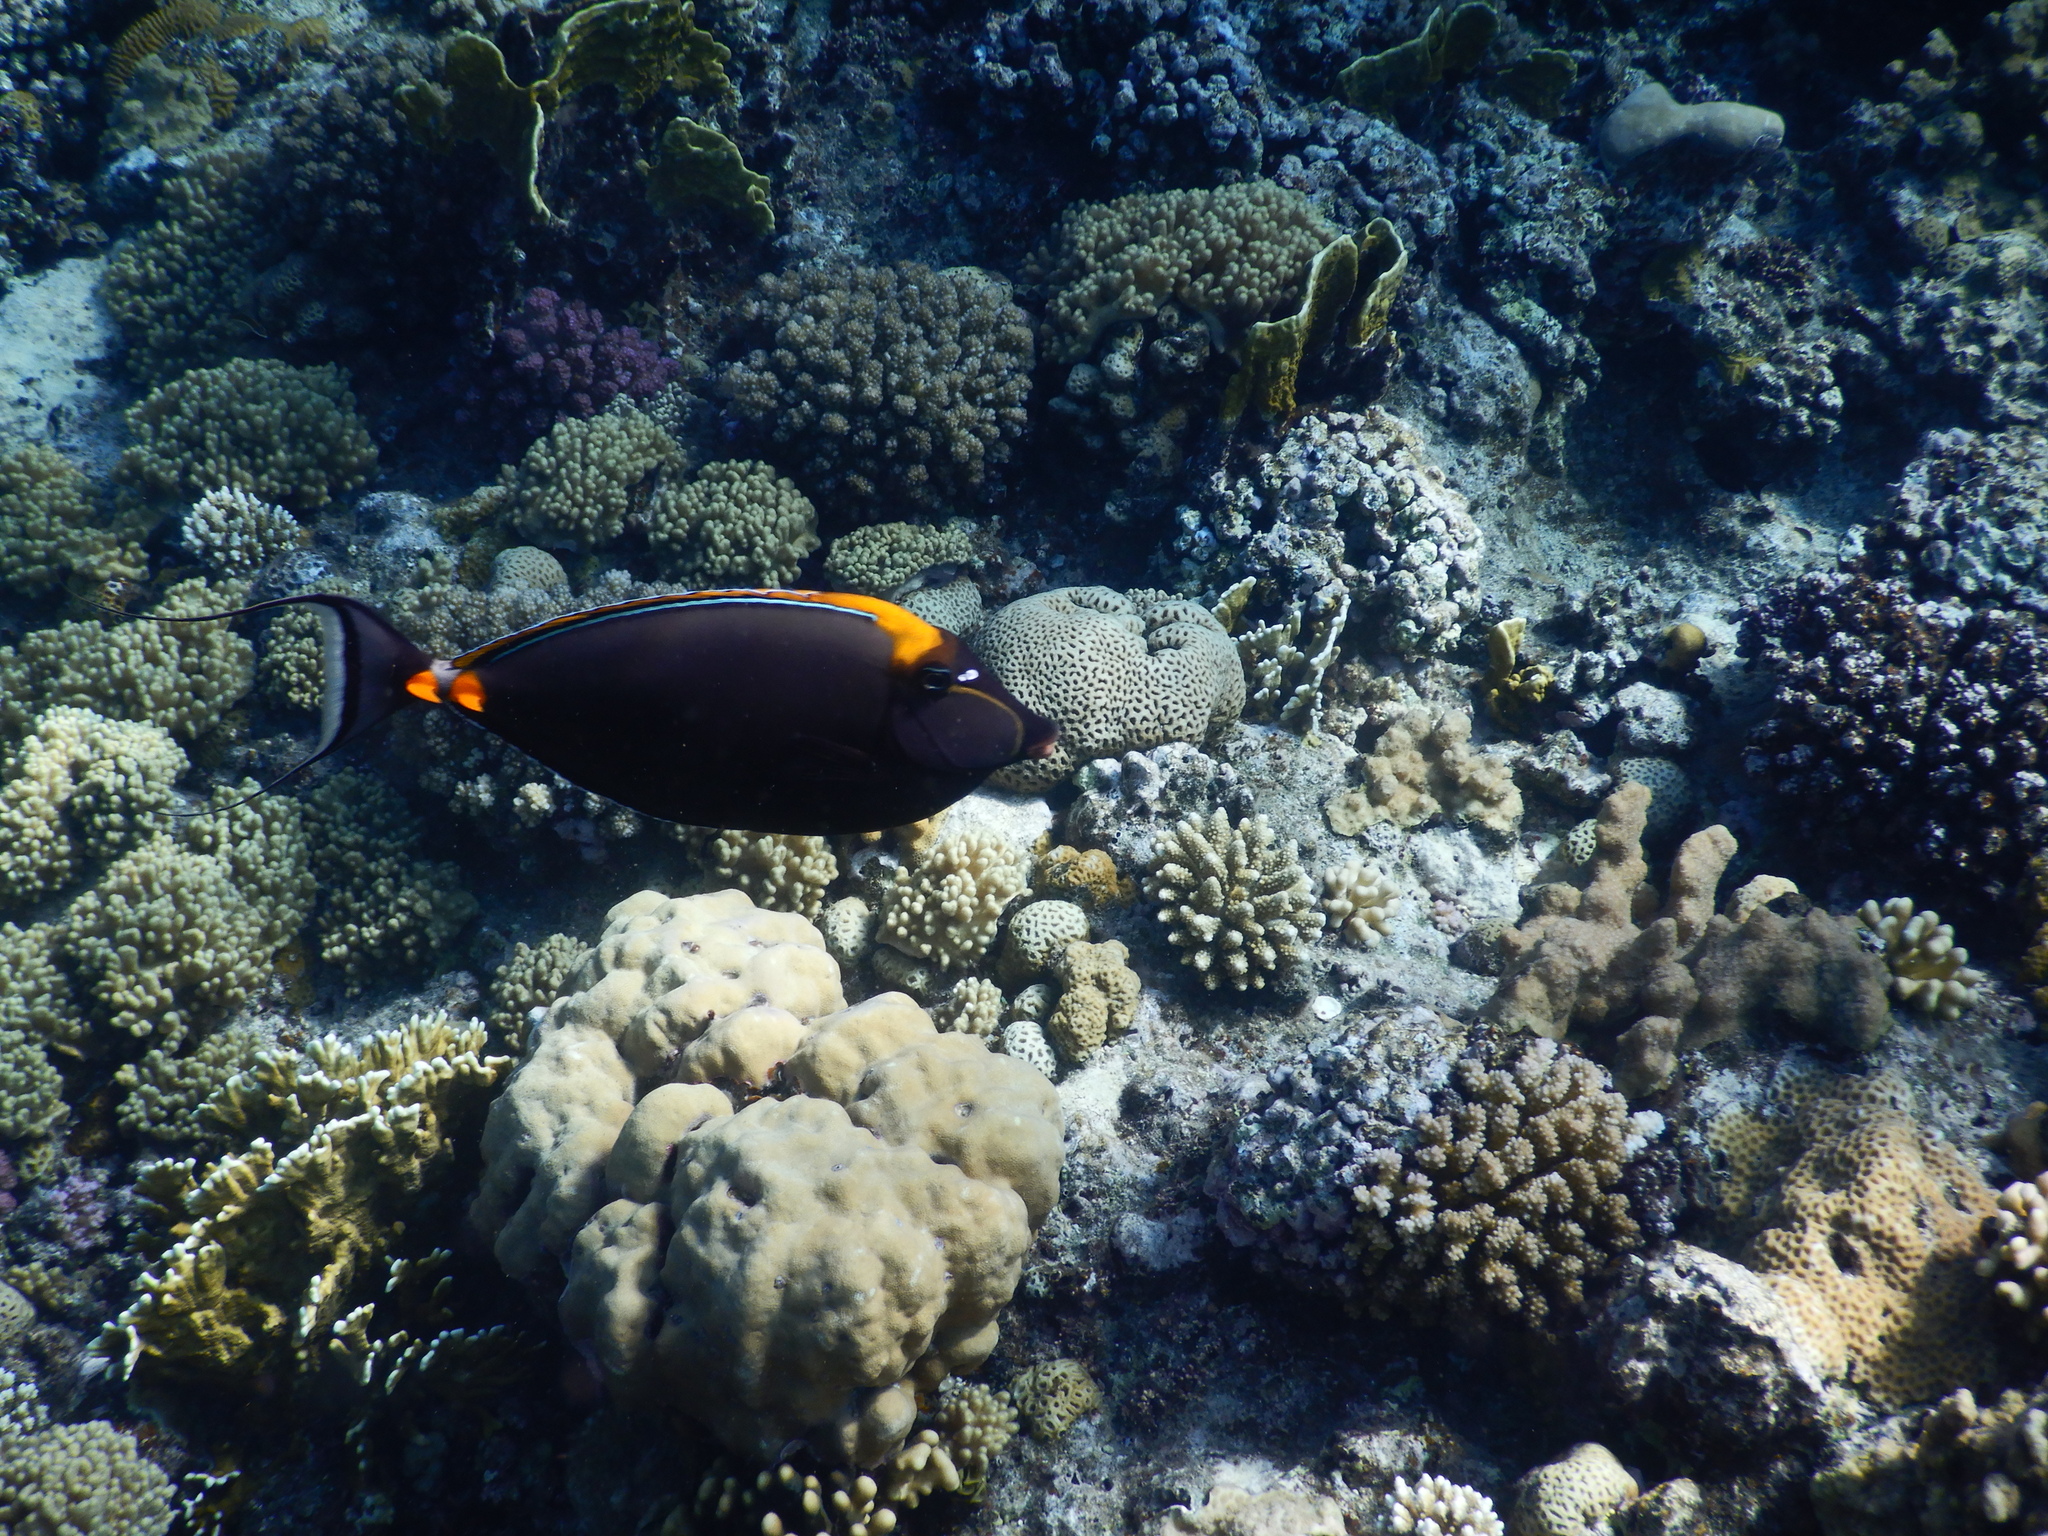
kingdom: Animalia
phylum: Chordata
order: Perciformes
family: Acanthuridae
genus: Naso
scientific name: Naso elegans
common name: Orangespine unicornfish
